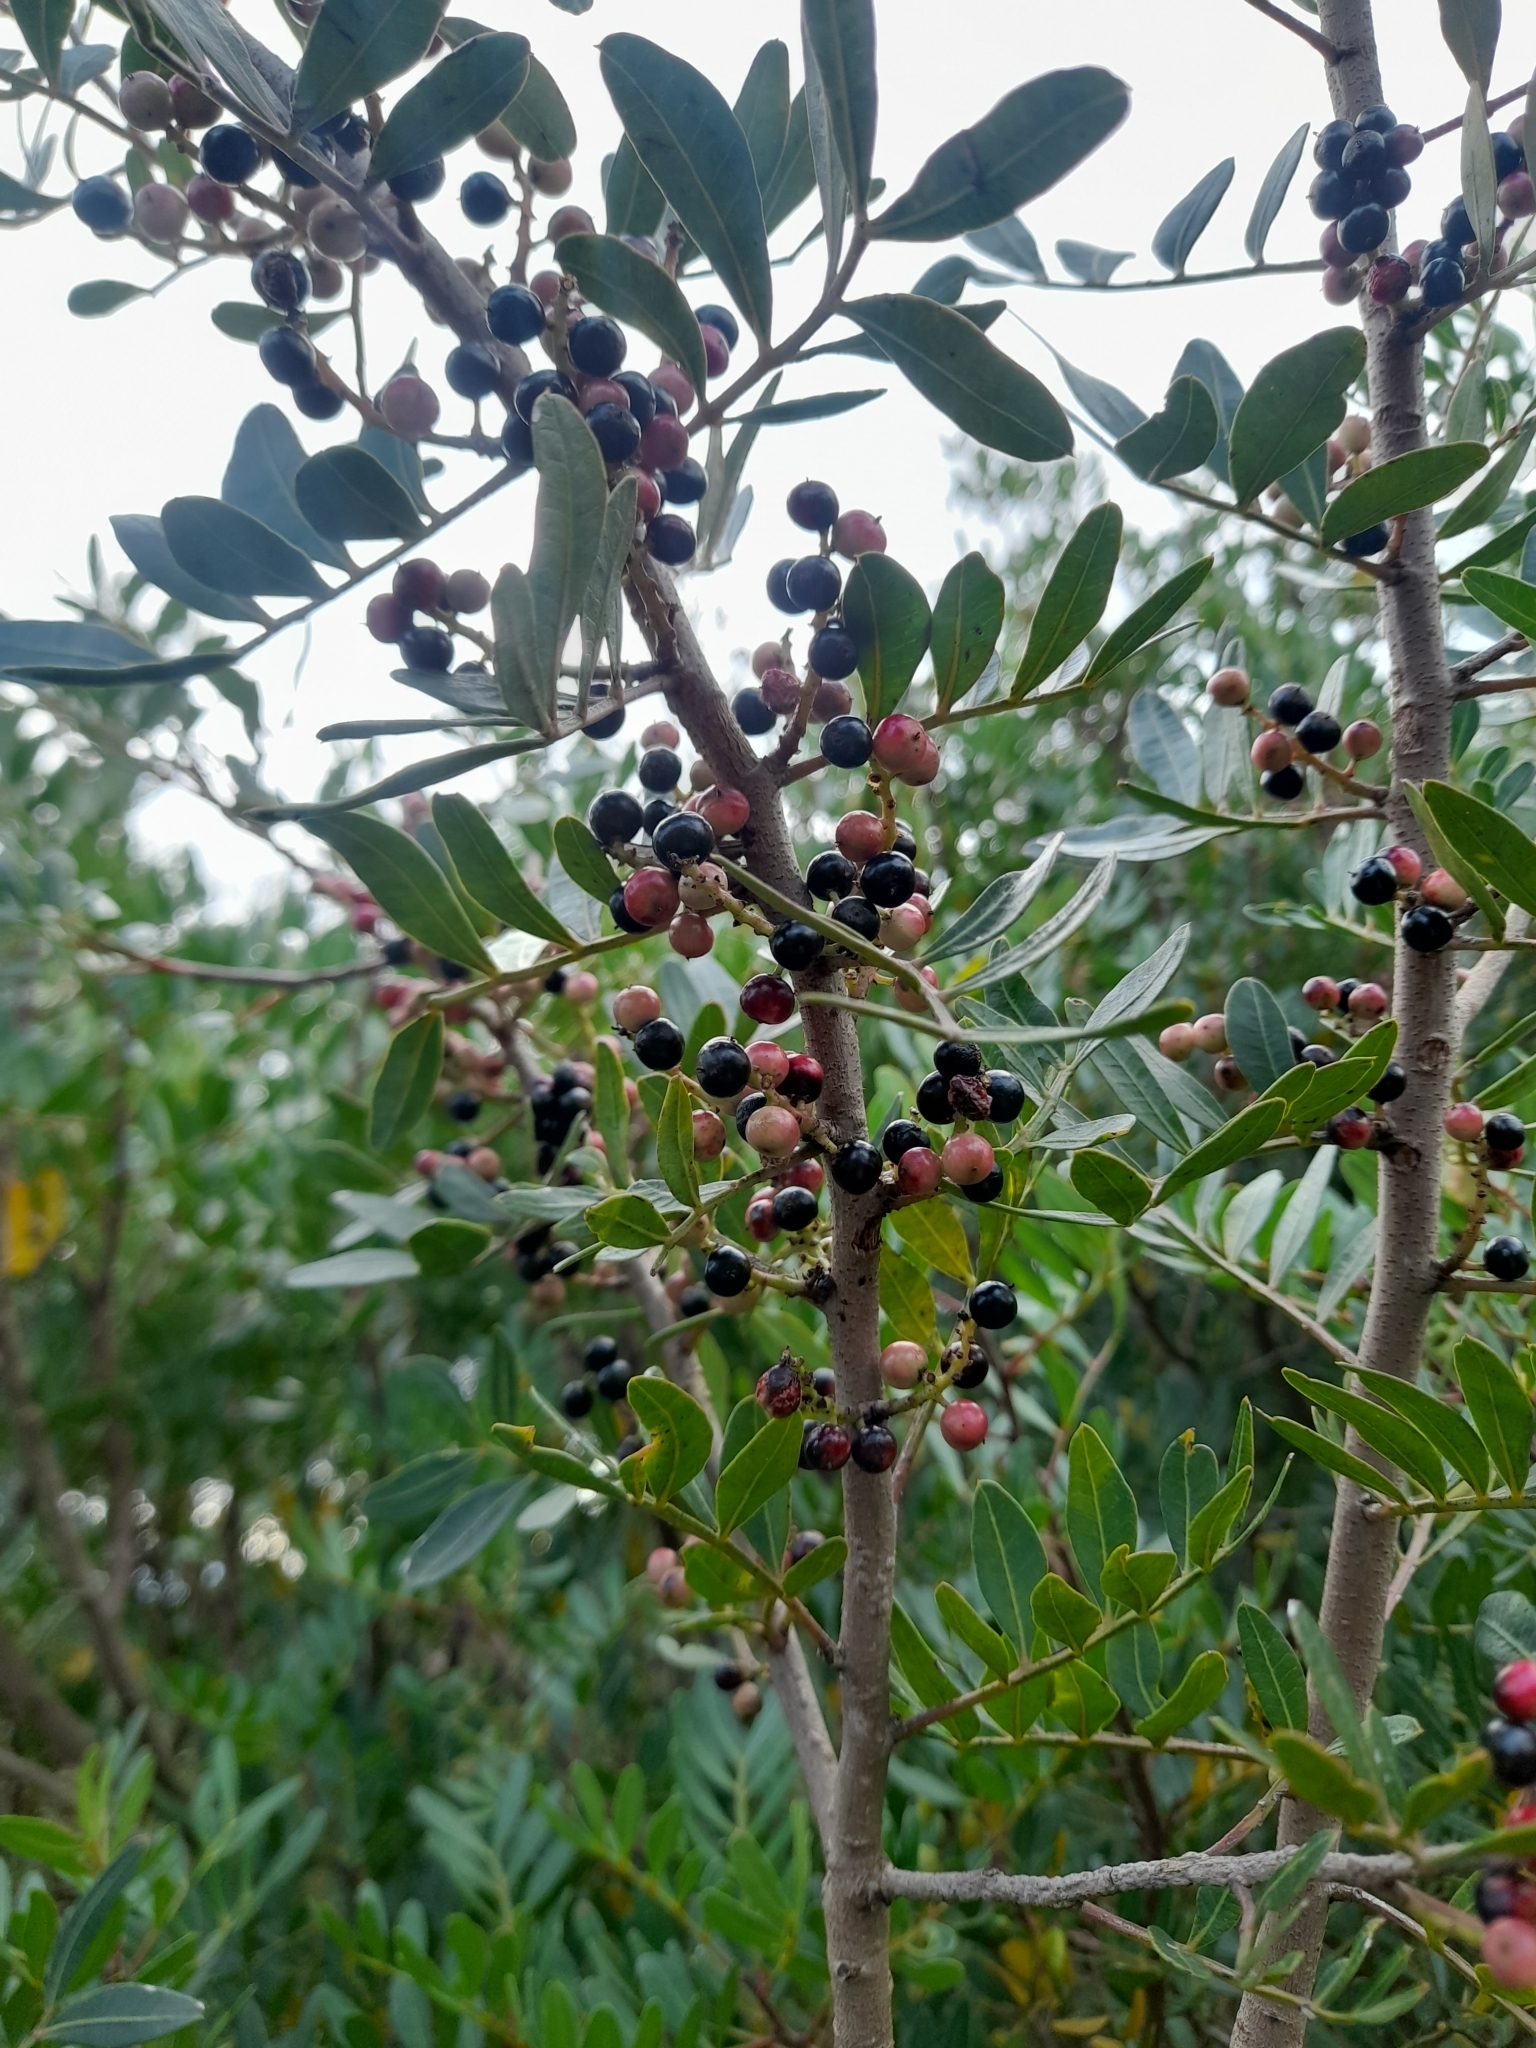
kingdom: Plantae
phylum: Tracheophyta
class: Magnoliopsida
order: Sapindales
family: Anacardiaceae
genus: Pistacia
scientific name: Pistacia lentiscus
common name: Lentisk
